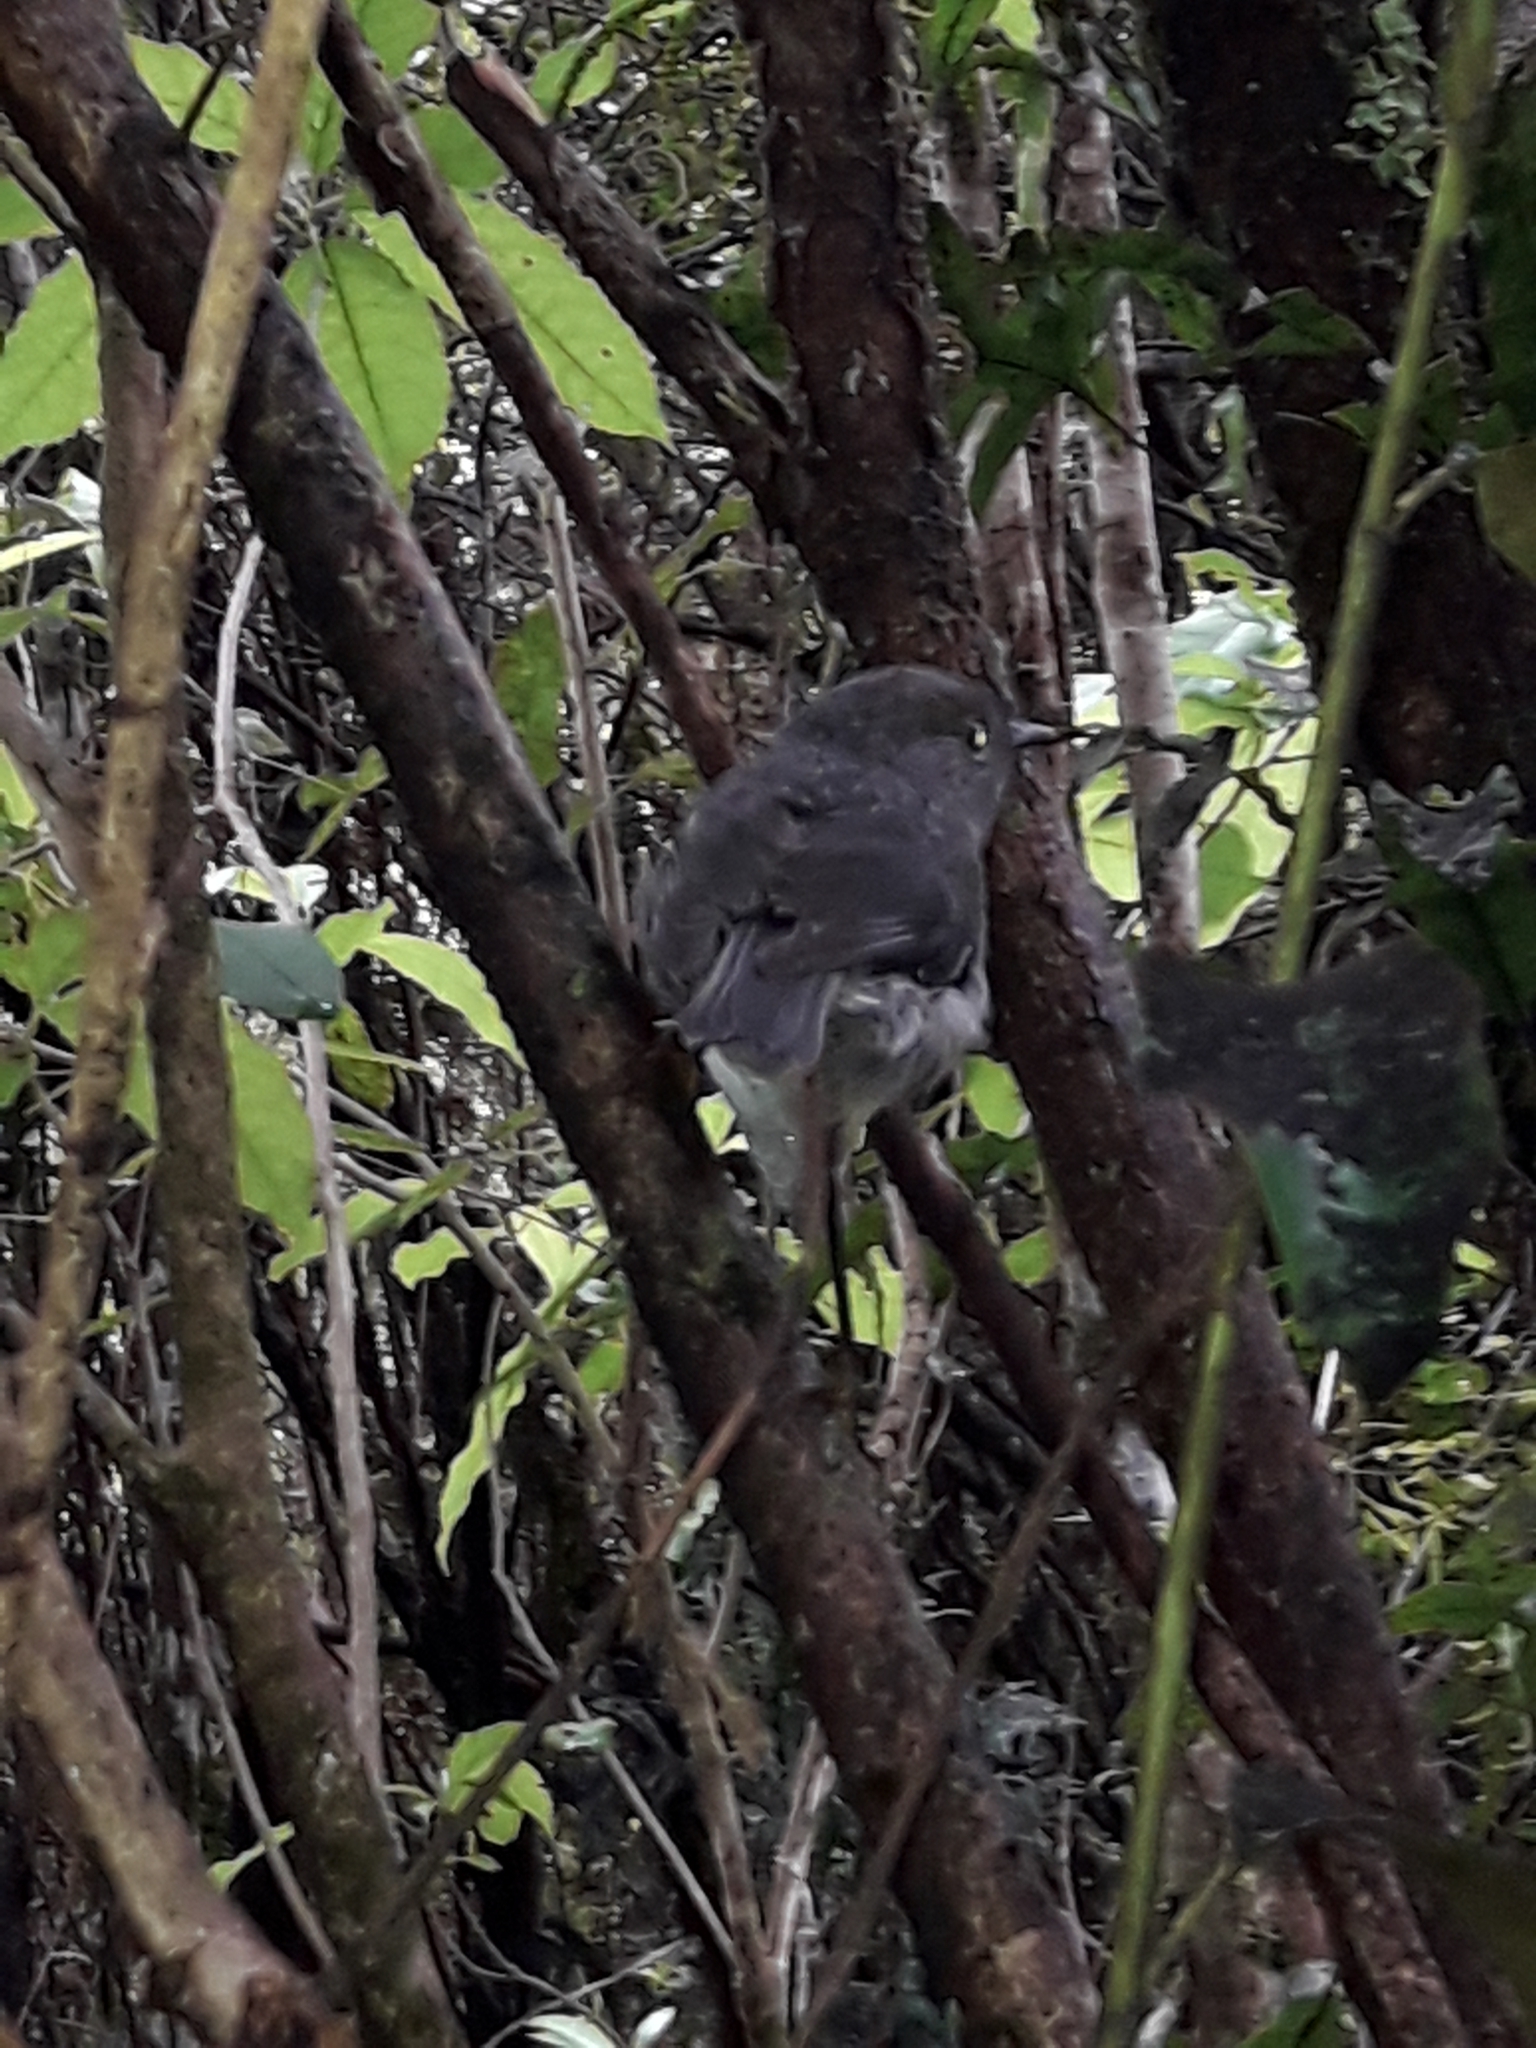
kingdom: Animalia
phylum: Chordata
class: Aves
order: Passeriformes
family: Petroicidae
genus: Petroica
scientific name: Petroica australis
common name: New zealand robin
